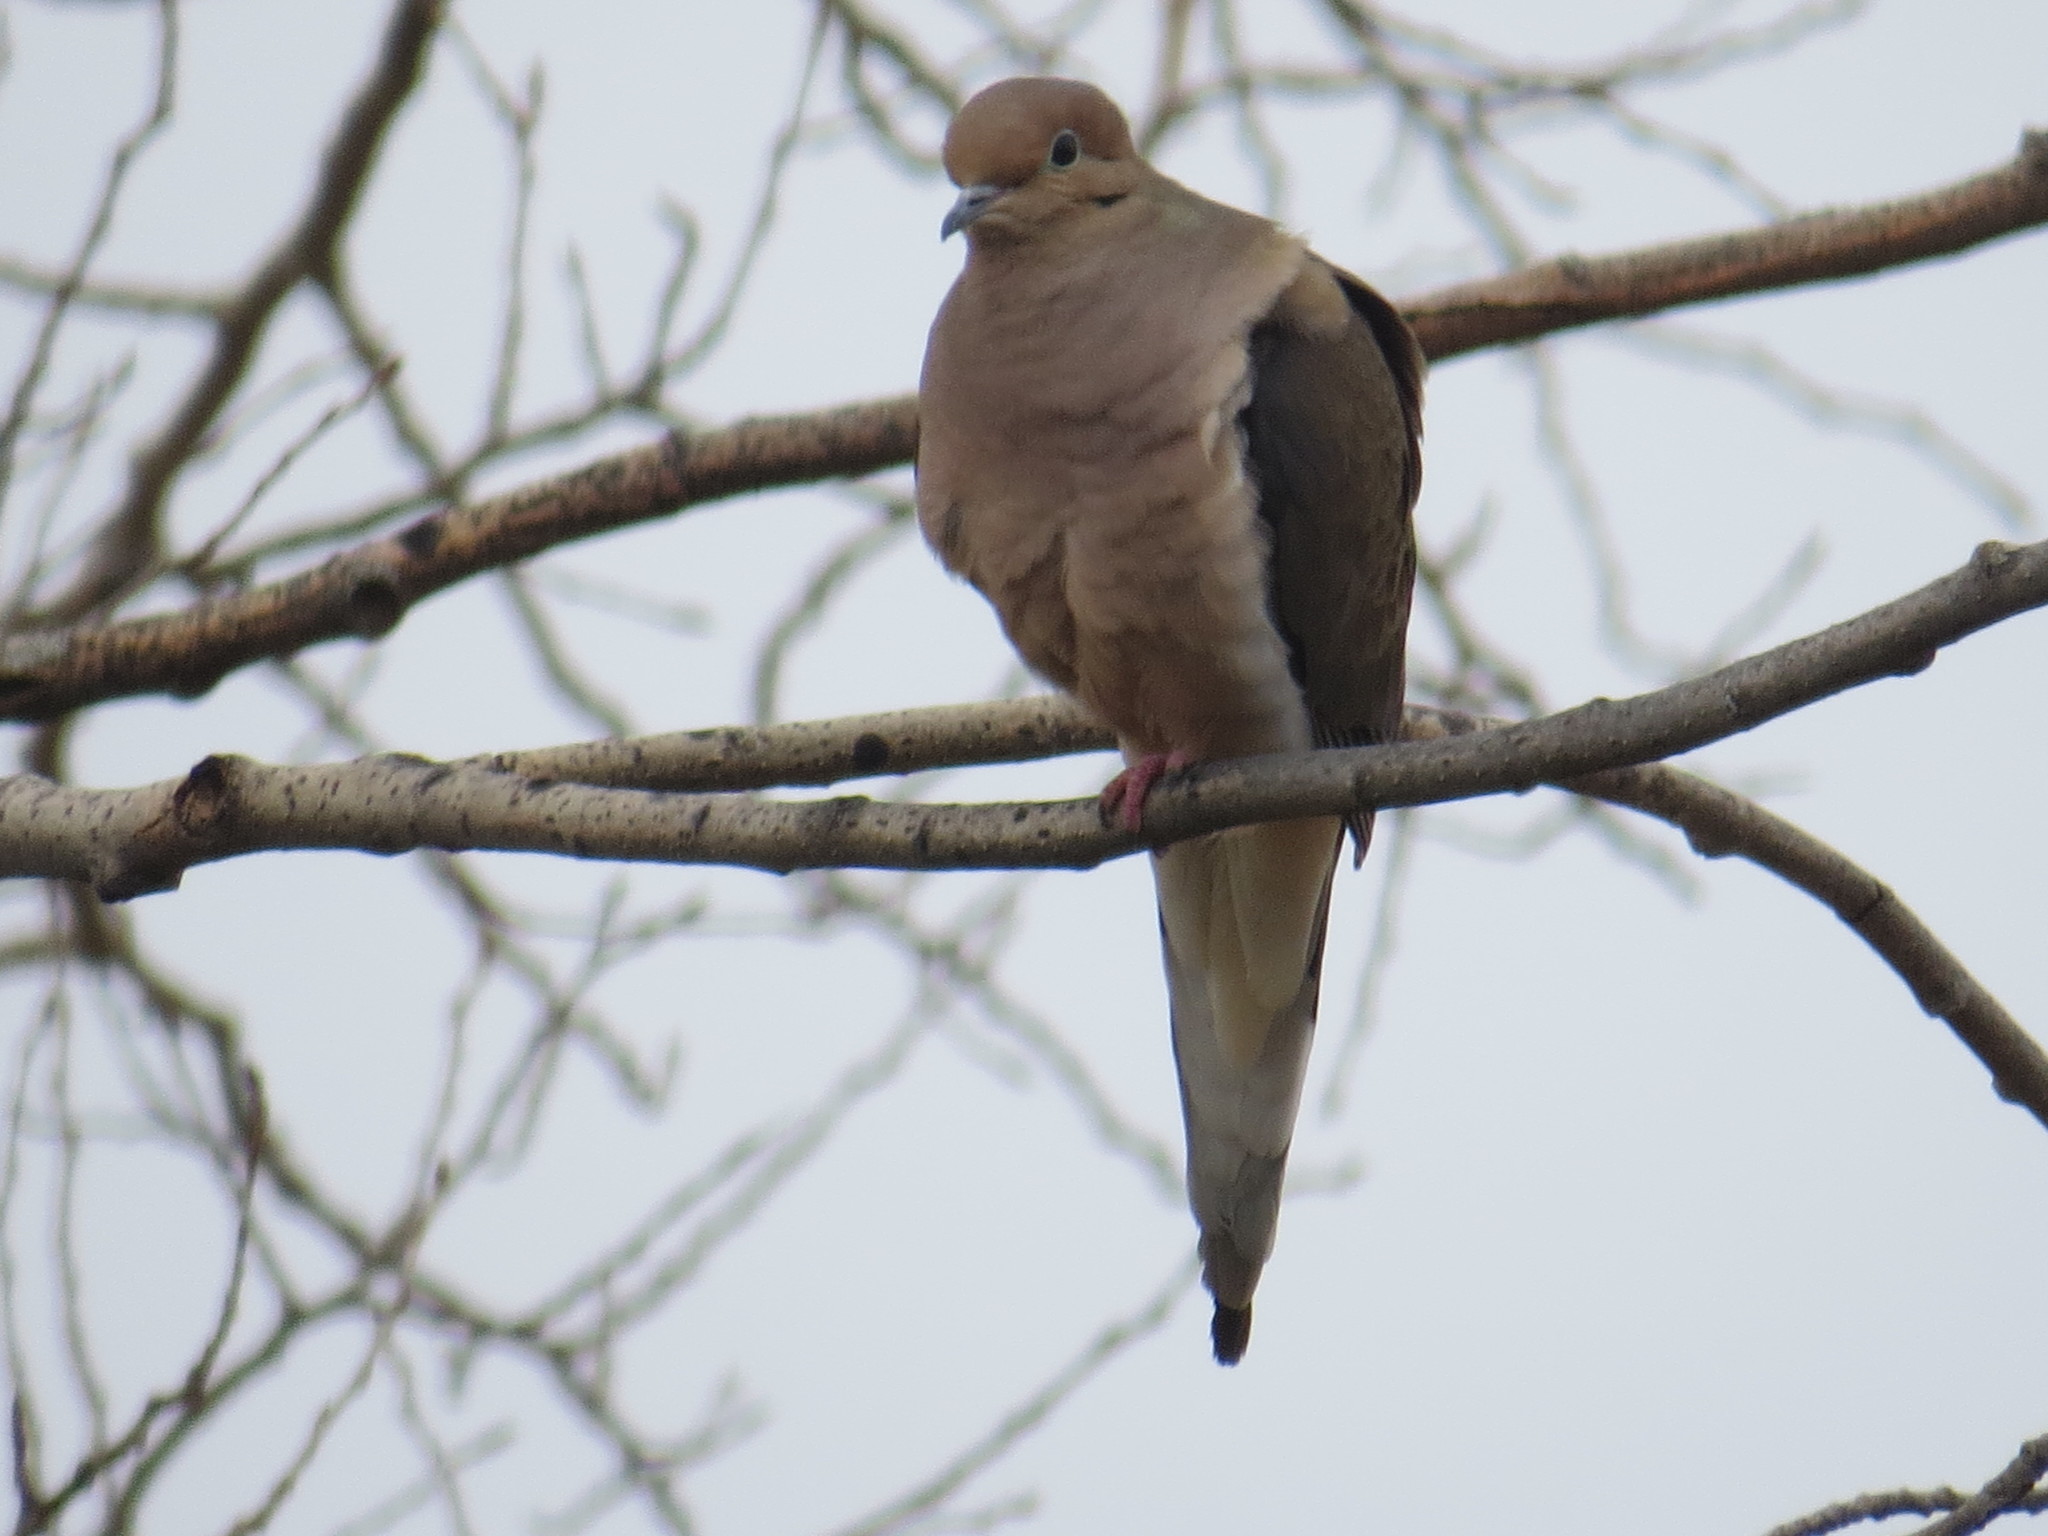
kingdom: Animalia
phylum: Chordata
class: Aves
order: Columbiformes
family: Columbidae
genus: Zenaida
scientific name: Zenaida macroura
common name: Mourning dove
